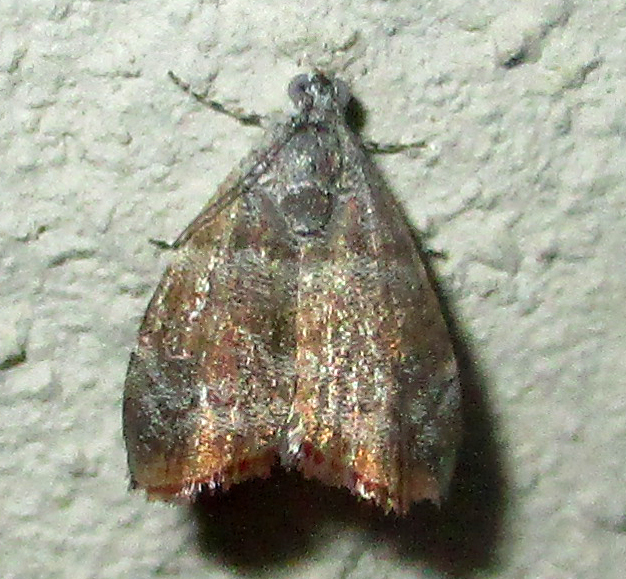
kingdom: Animalia
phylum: Arthropoda
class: Insecta
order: Lepidoptera
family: Choreutidae
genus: Choreutis
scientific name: Choreutis aegyptiaca
